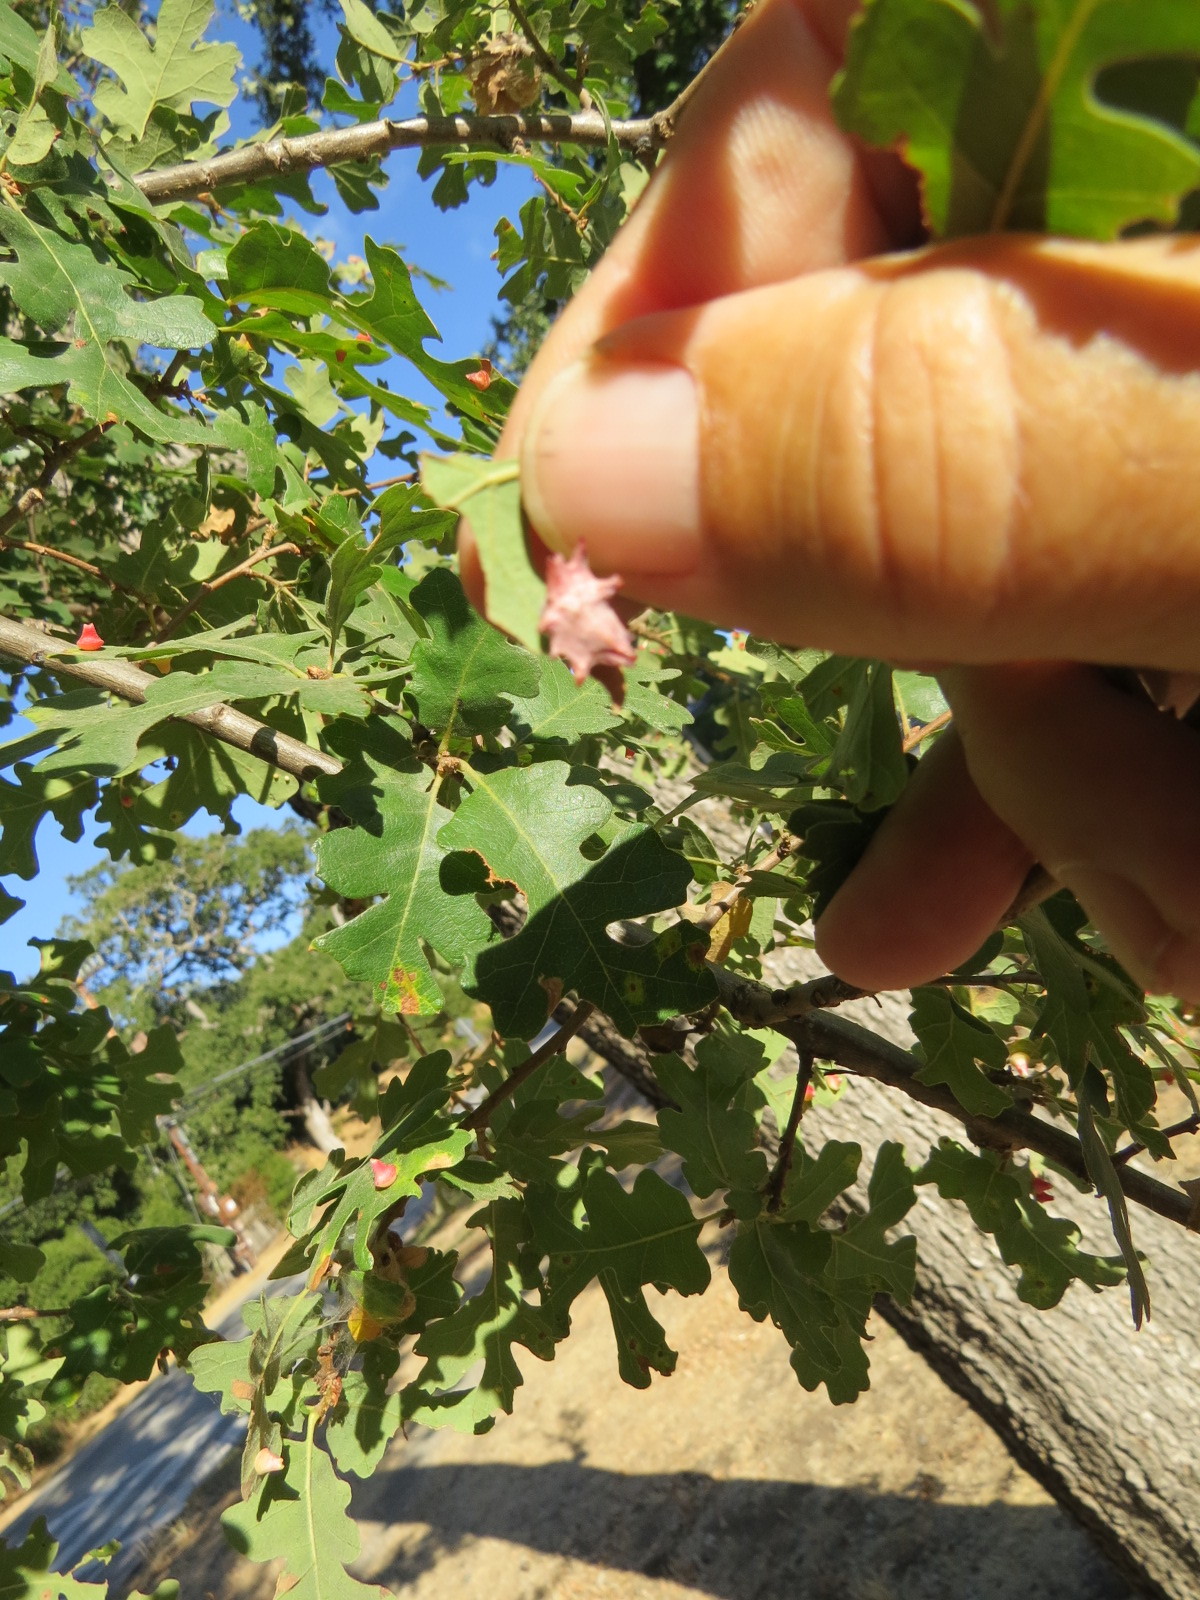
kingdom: Animalia
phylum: Arthropoda
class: Insecta
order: Hymenoptera
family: Cynipidae
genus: Cynips
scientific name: Cynips douglasi
